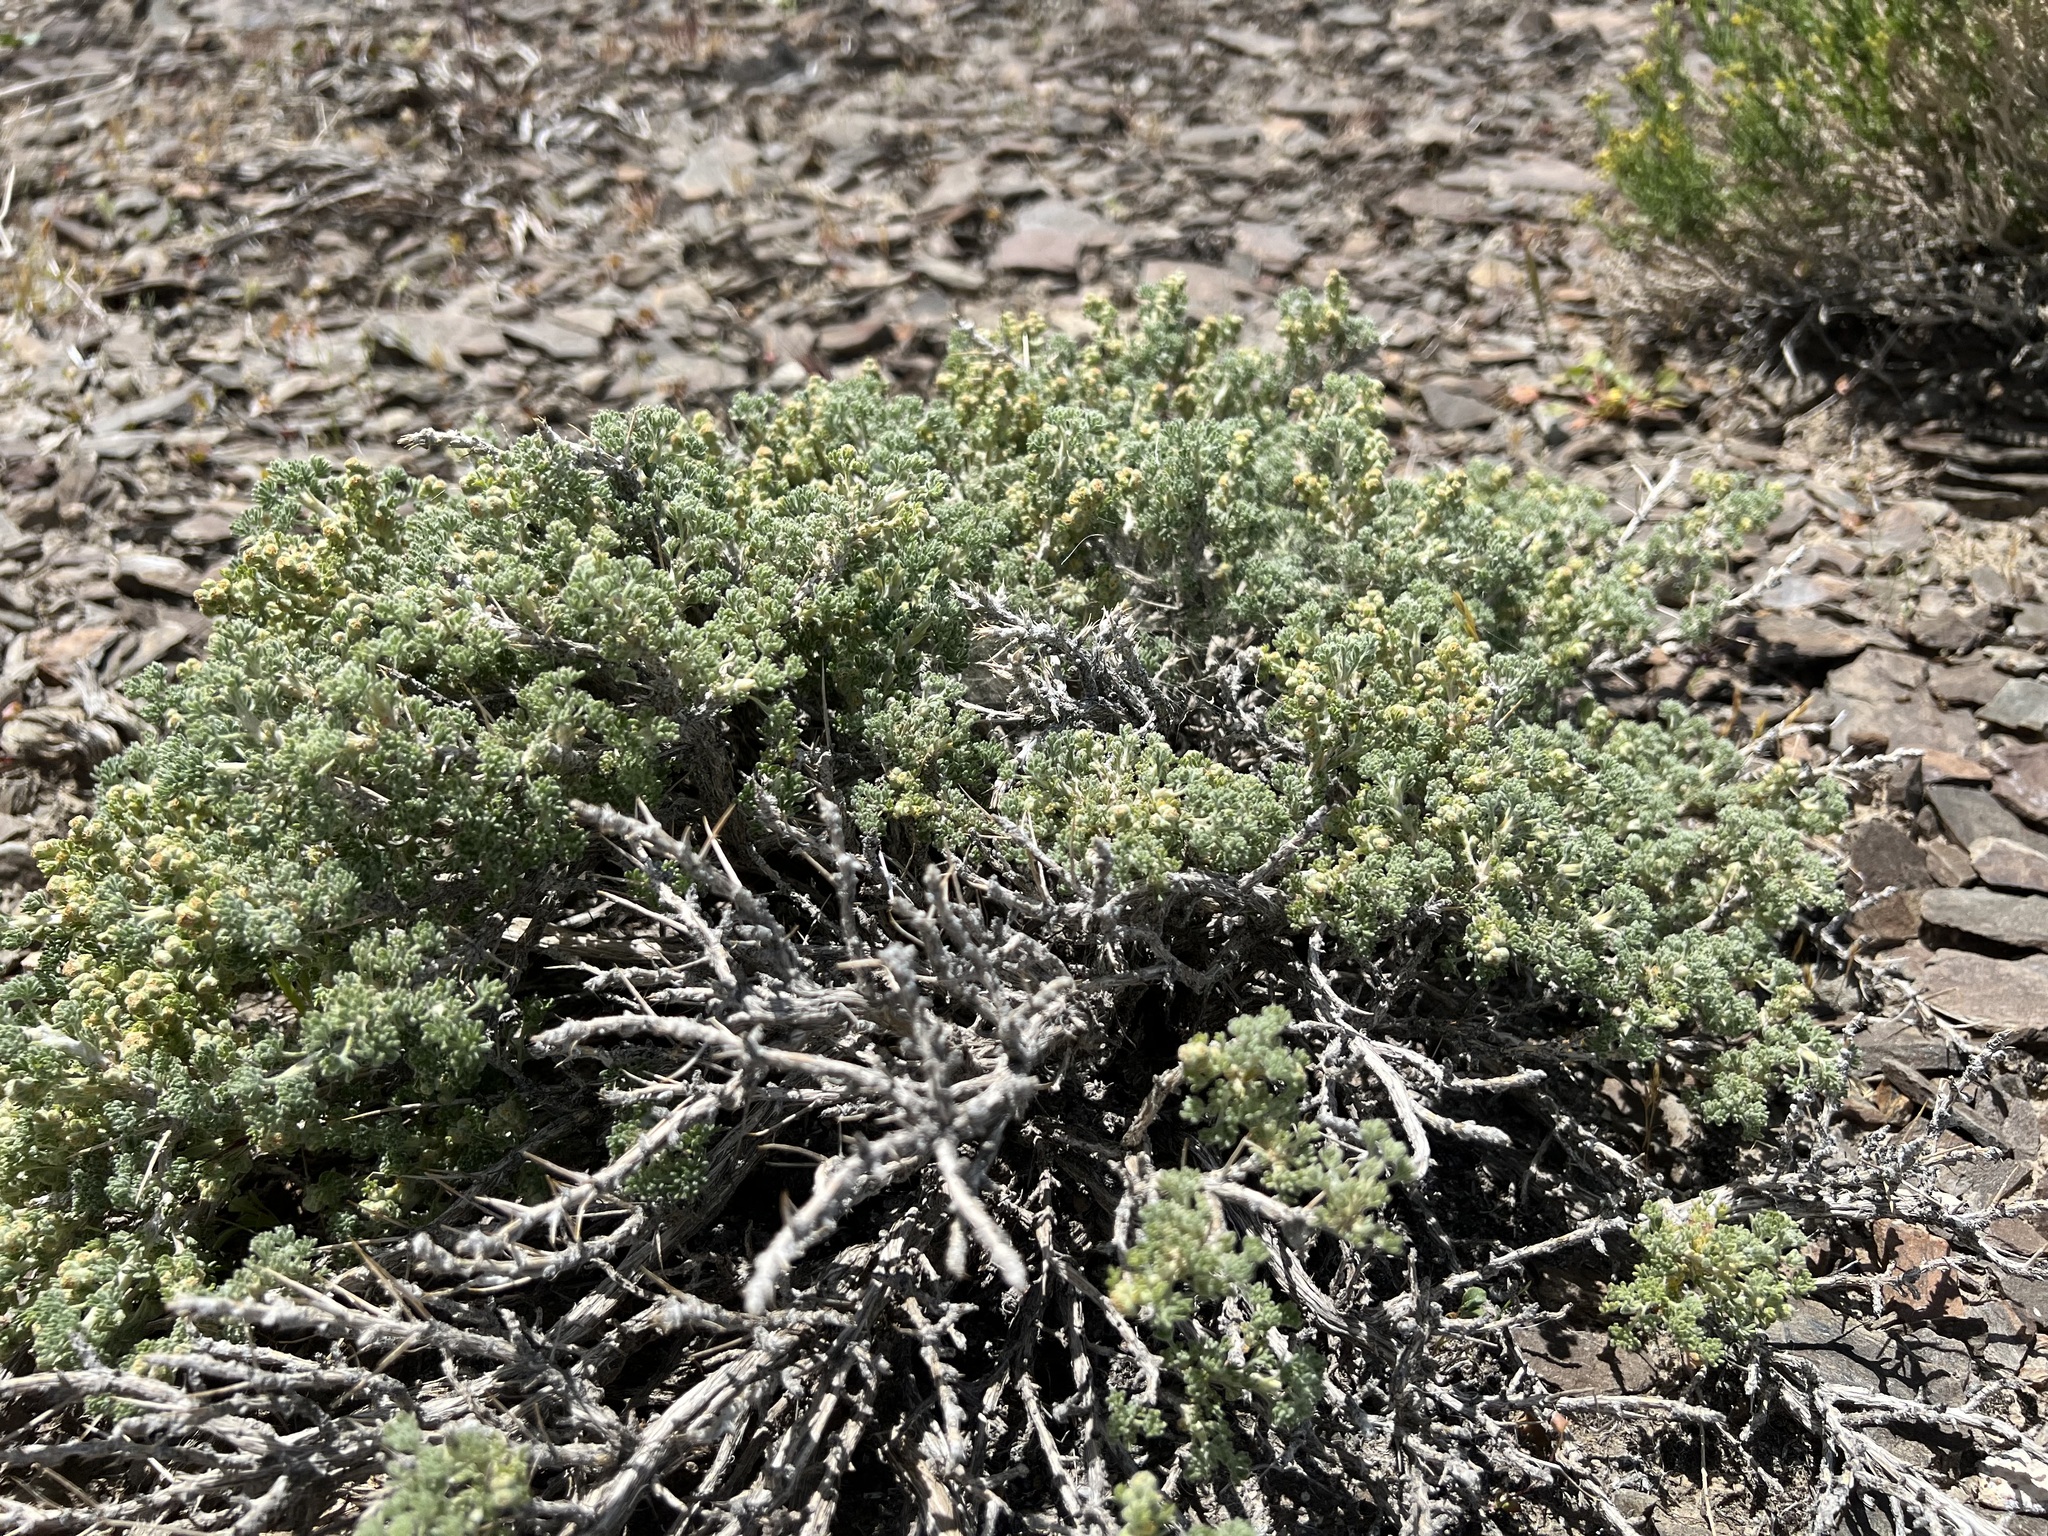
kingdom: Plantae
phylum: Tracheophyta
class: Magnoliopsida
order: Asterales
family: Asteraceae
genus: Artemisia
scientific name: Artemisia spinescens
